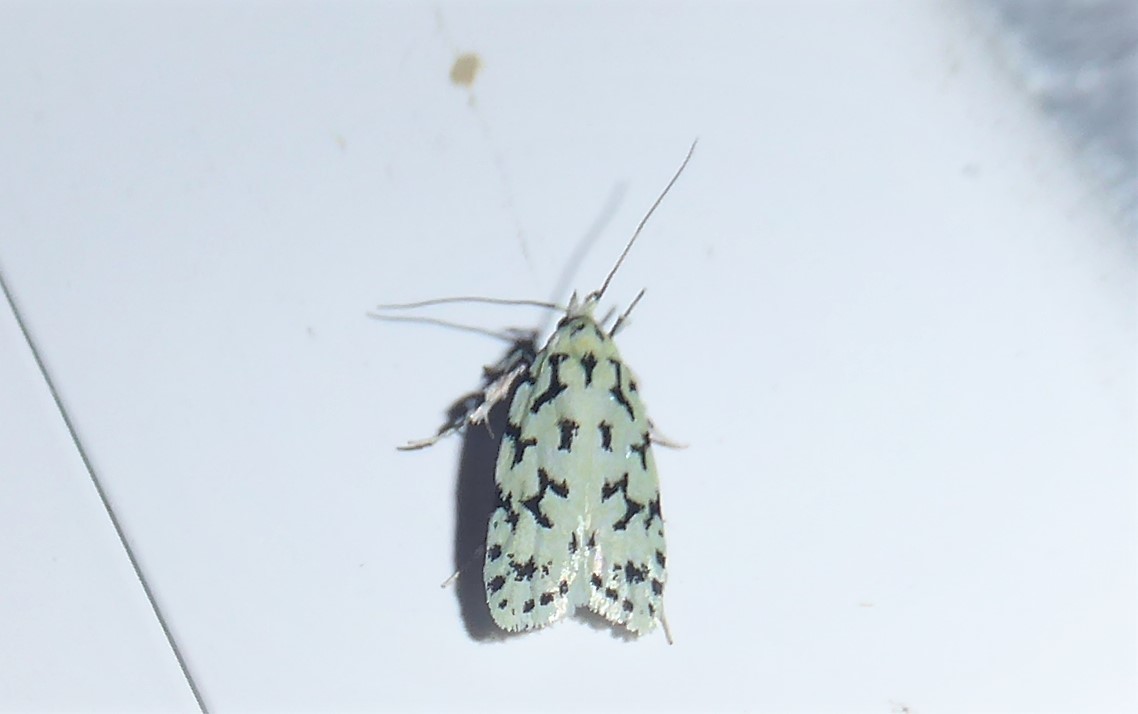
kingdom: Animalia
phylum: Arthropoda
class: Insecta
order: Lepidoptera
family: Oecophoridae
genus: Izatha
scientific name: Izatha huttoni
